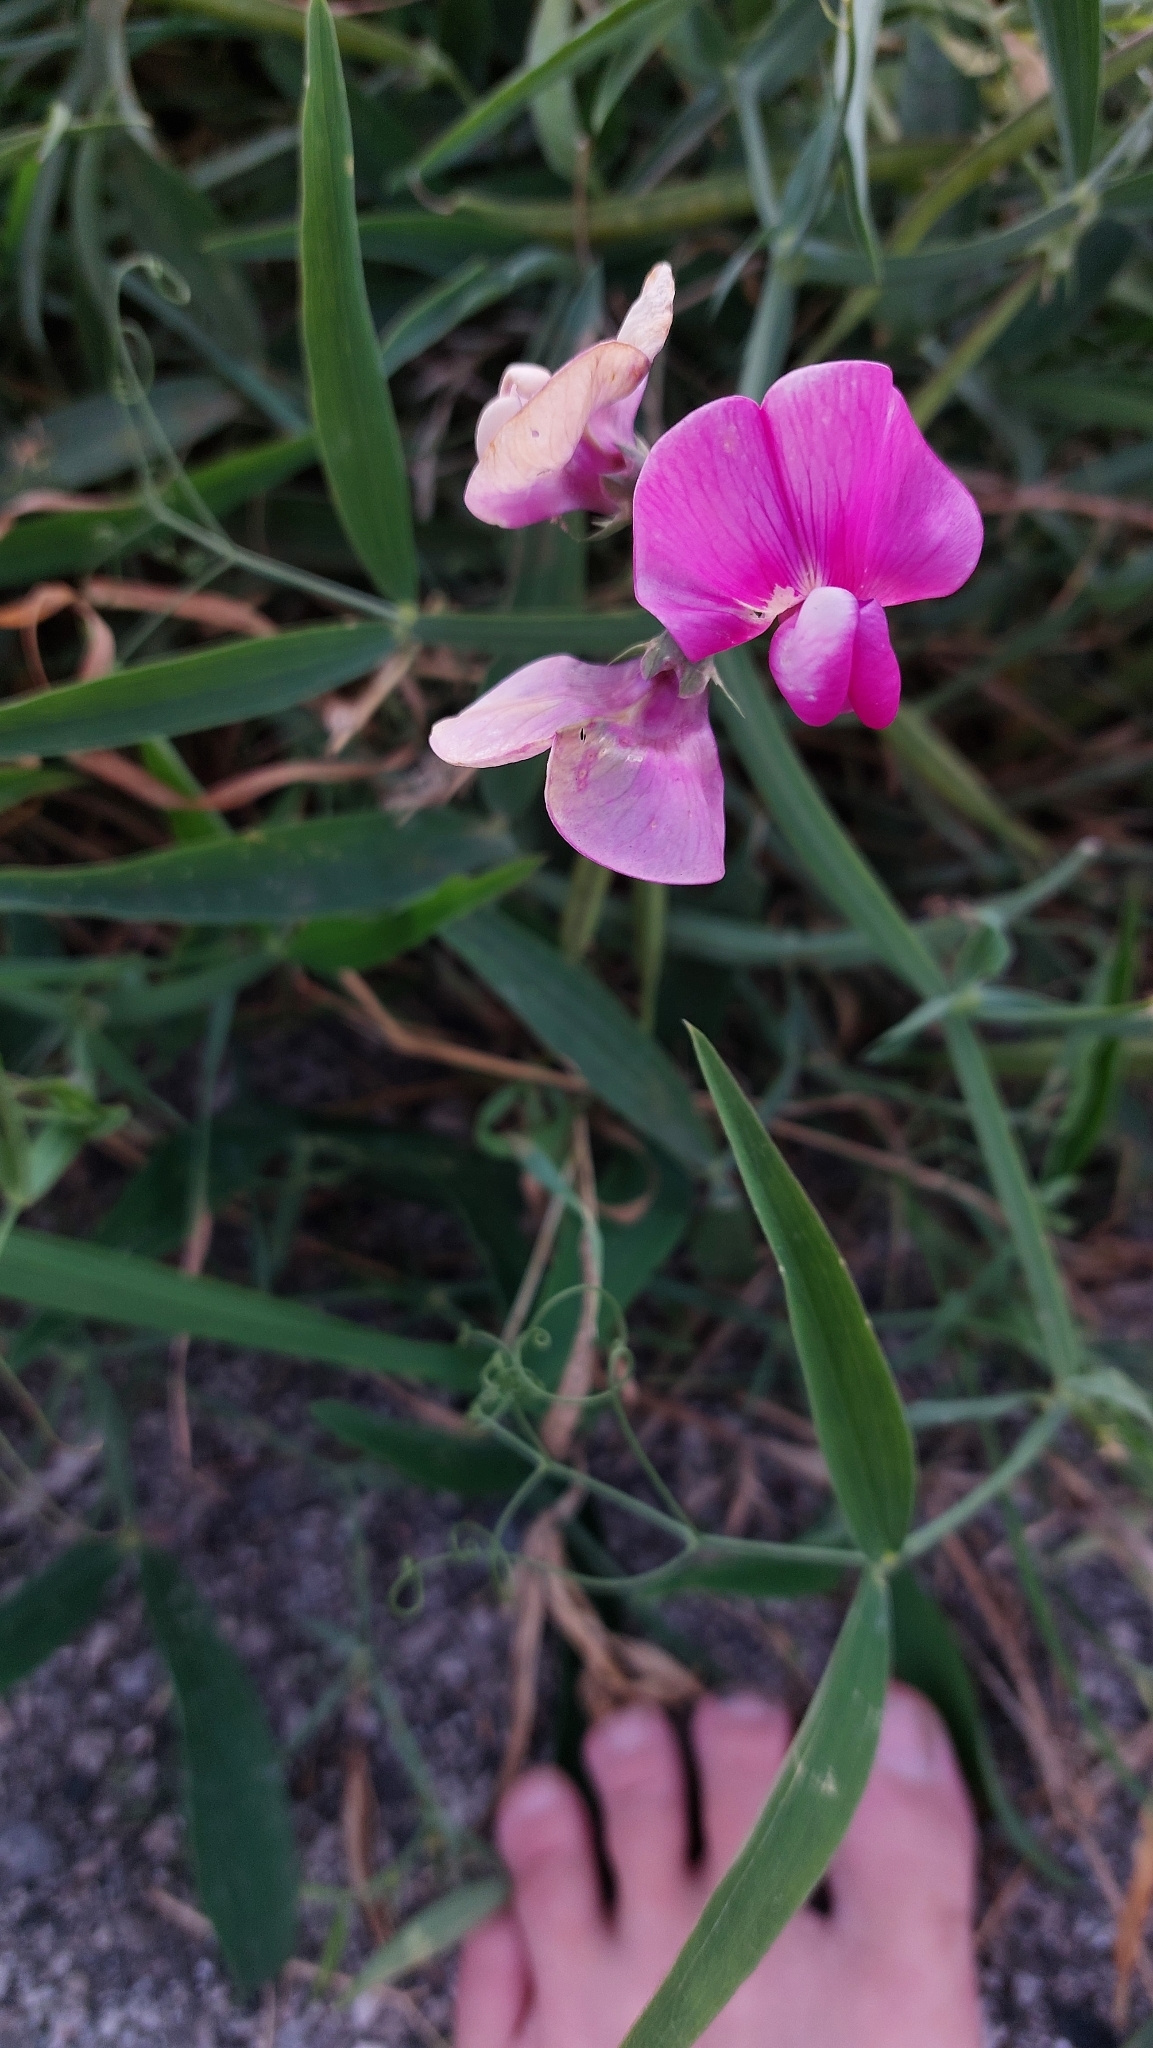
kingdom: Plantae
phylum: Tracheophyta
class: Magnoliopsida
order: Fabales
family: Fabaceae
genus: Lathyrus
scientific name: Lathyrus latifolius
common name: Perennial pea
